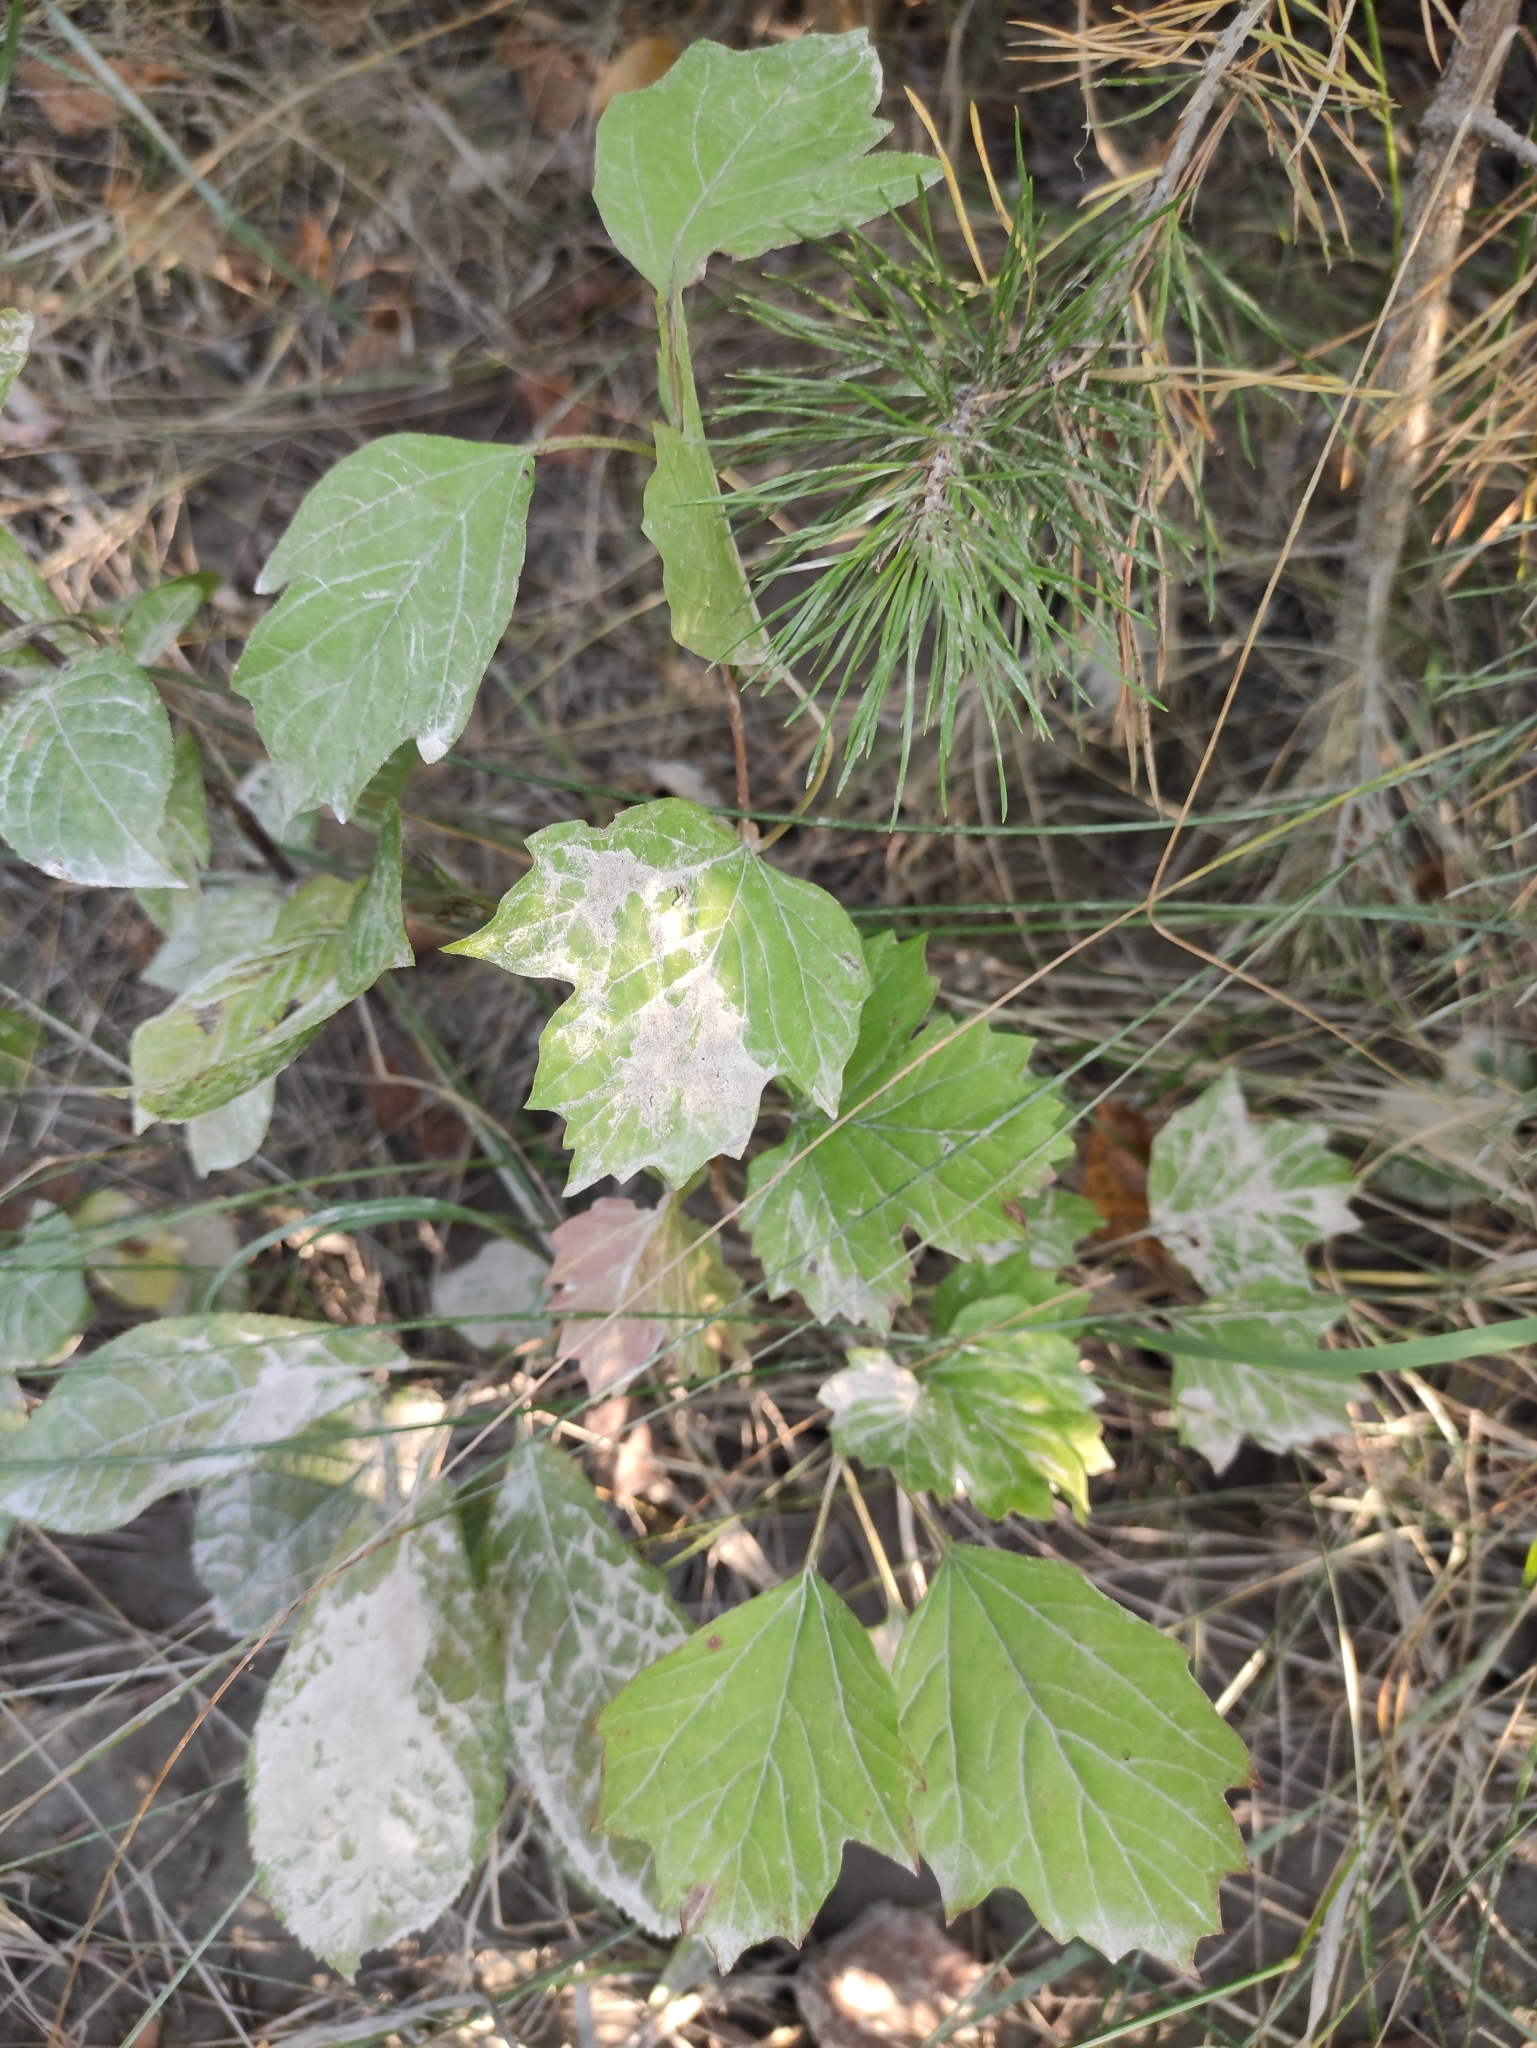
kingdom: Plantae
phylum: Tracheophyta
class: Magnoliopsida
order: Dipsacales
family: Viburnaceae
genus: Viburnum
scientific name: Viburnum opulus
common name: Guelder-rose
